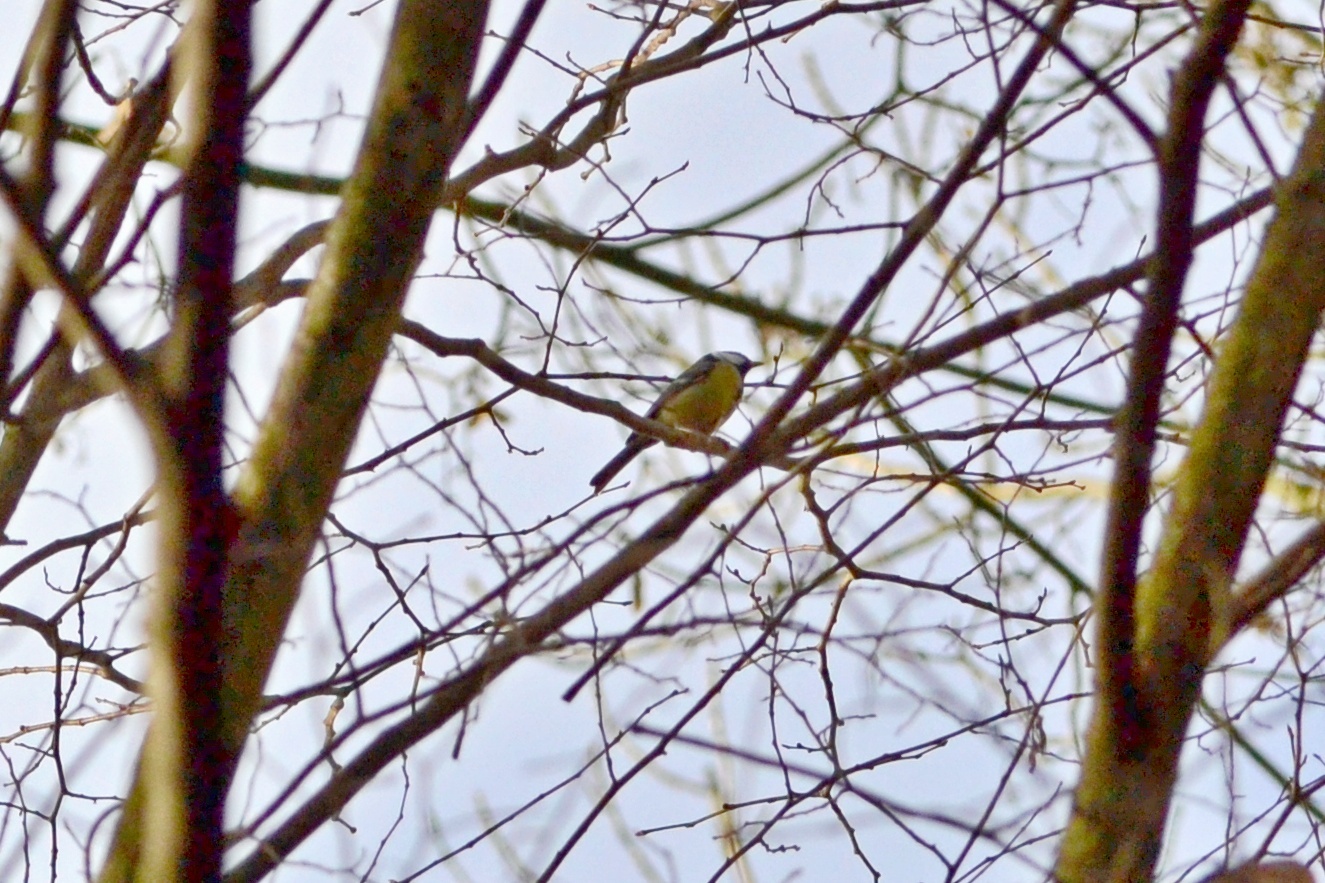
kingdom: Animalia
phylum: Chordata
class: Aves
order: Passeriformes
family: Paridae
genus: Parus
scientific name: Parus major
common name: Great tit
